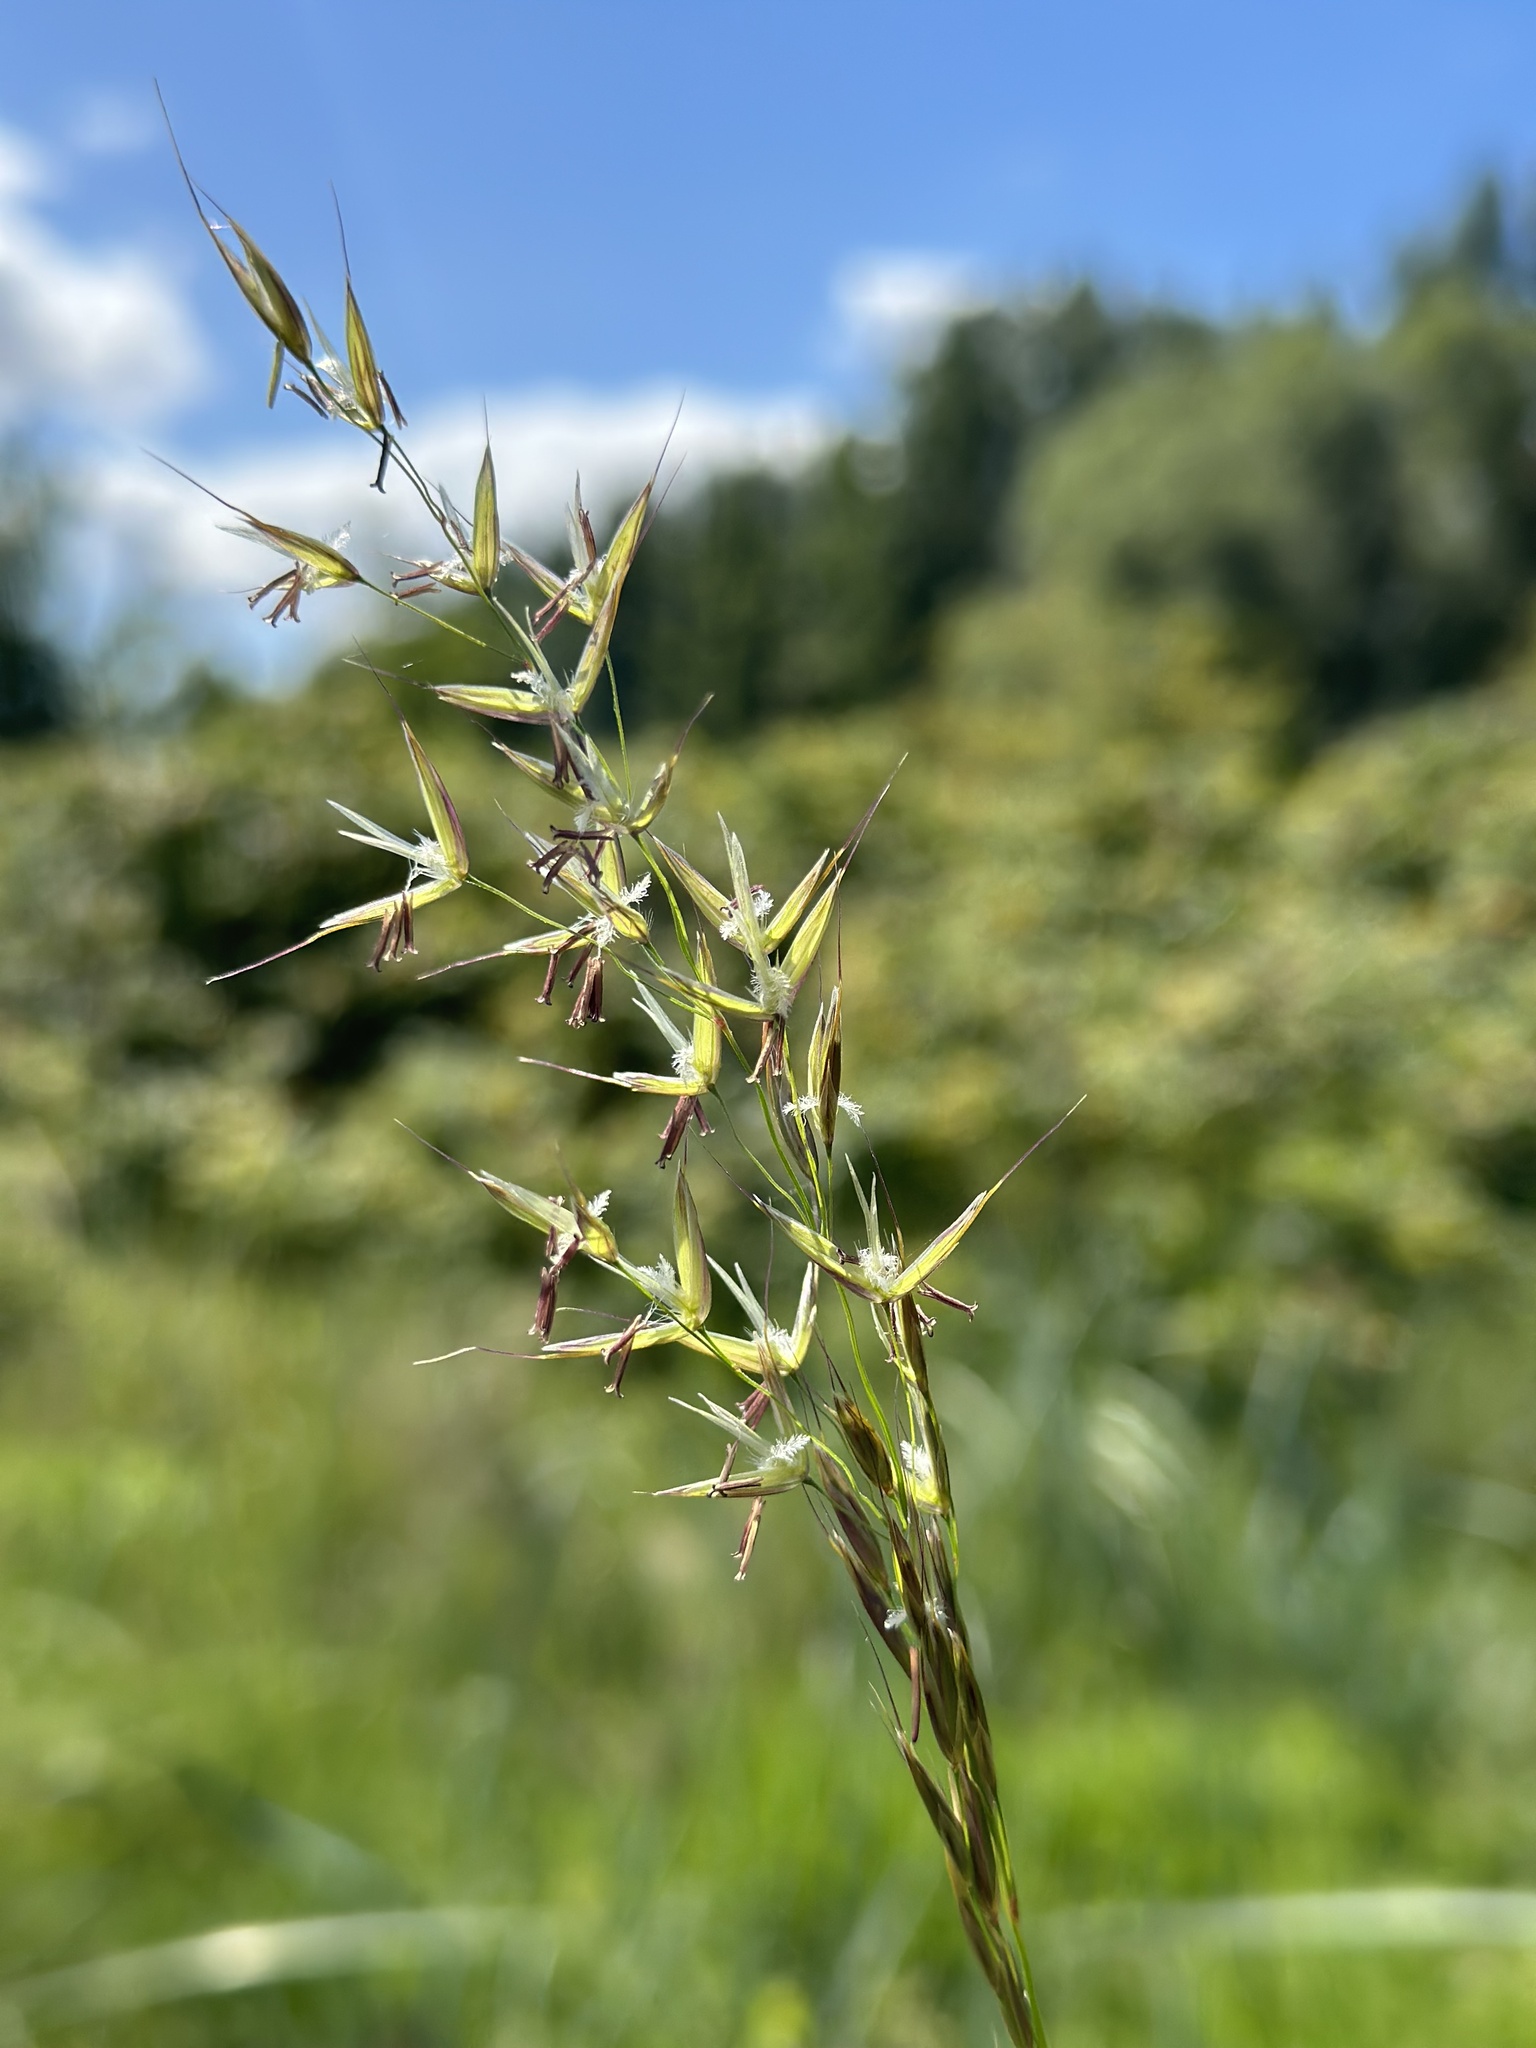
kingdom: Plantae
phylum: Tracheophyta
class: Liliopsida
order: Poales
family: Poaceae
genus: Arrhenatherum
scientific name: Arrhenatherum elatius
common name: Tall oatgrass
